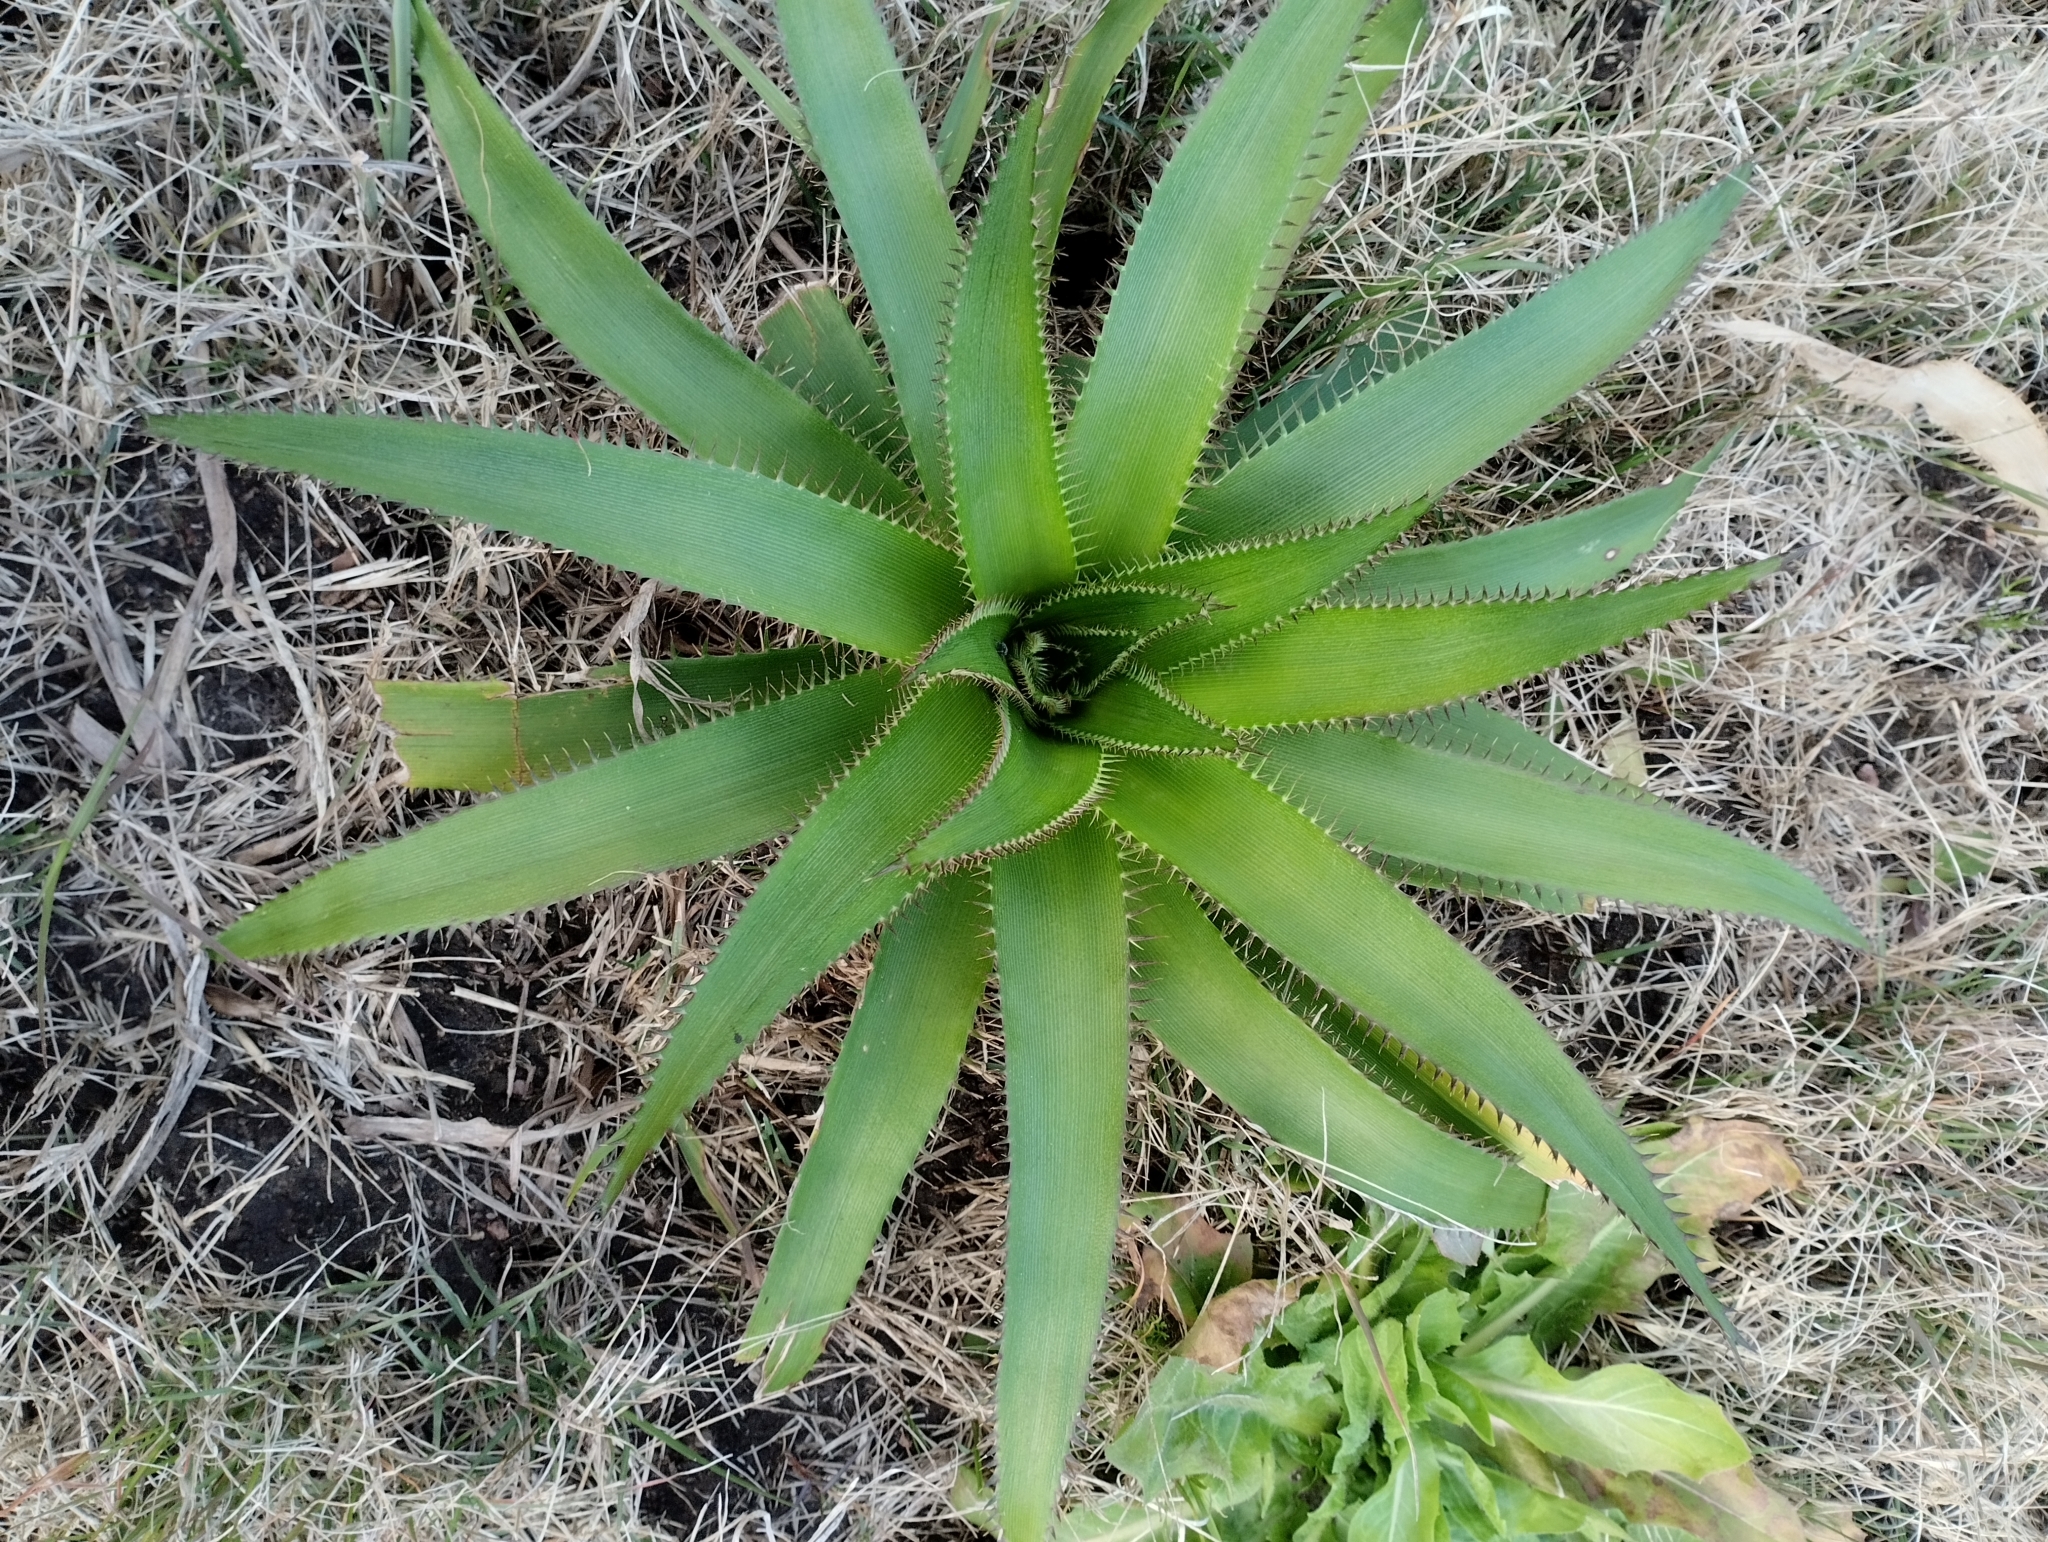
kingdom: Plantae
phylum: Tracheophyta
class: Magnoliopsida
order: Apiales
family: Apiaceae
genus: Eryngium
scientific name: Eryngium eburneum
